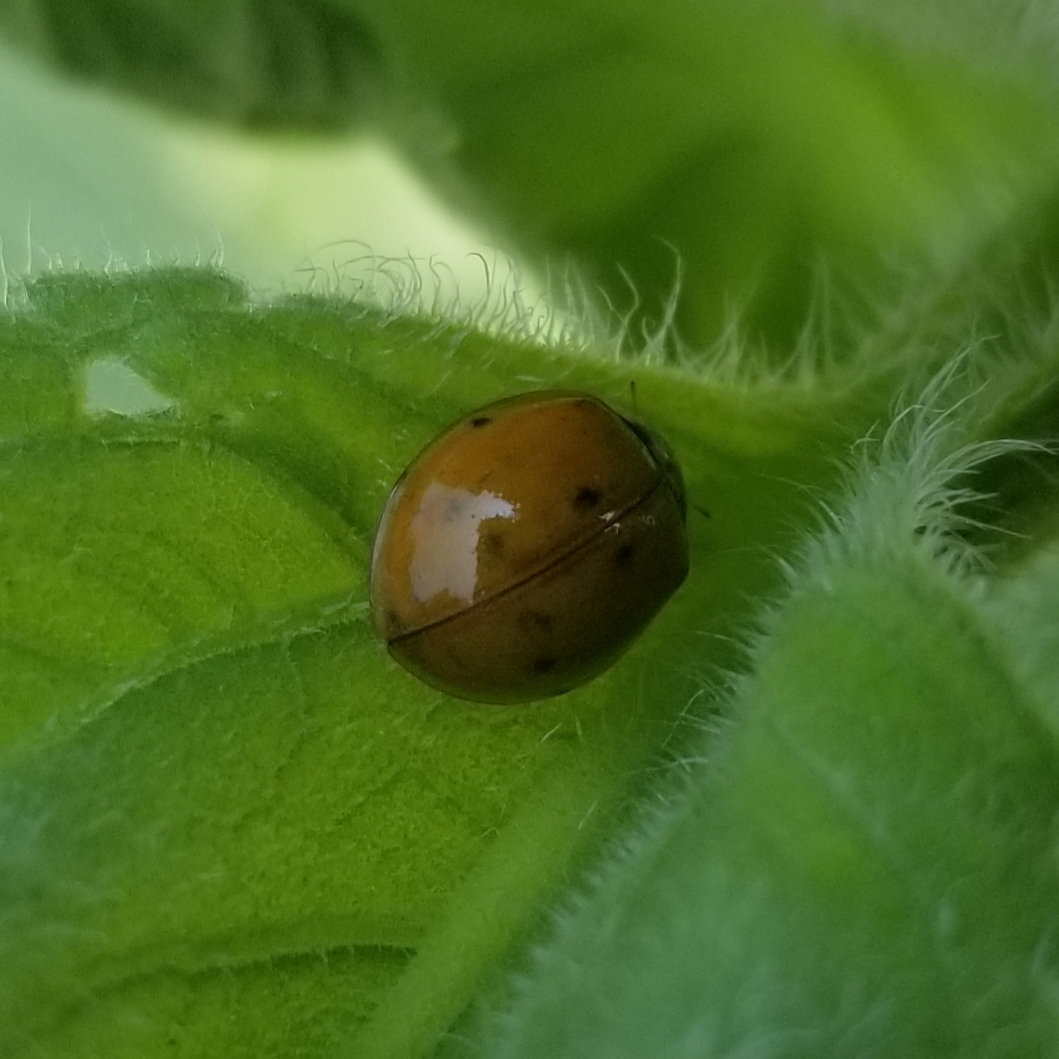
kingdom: Animalia
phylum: Arthropoda
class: Insecta
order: Coleoptera
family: Coccinellidae
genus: Harmonia
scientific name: Harmonia axyridis
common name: Harlequin ladybird
